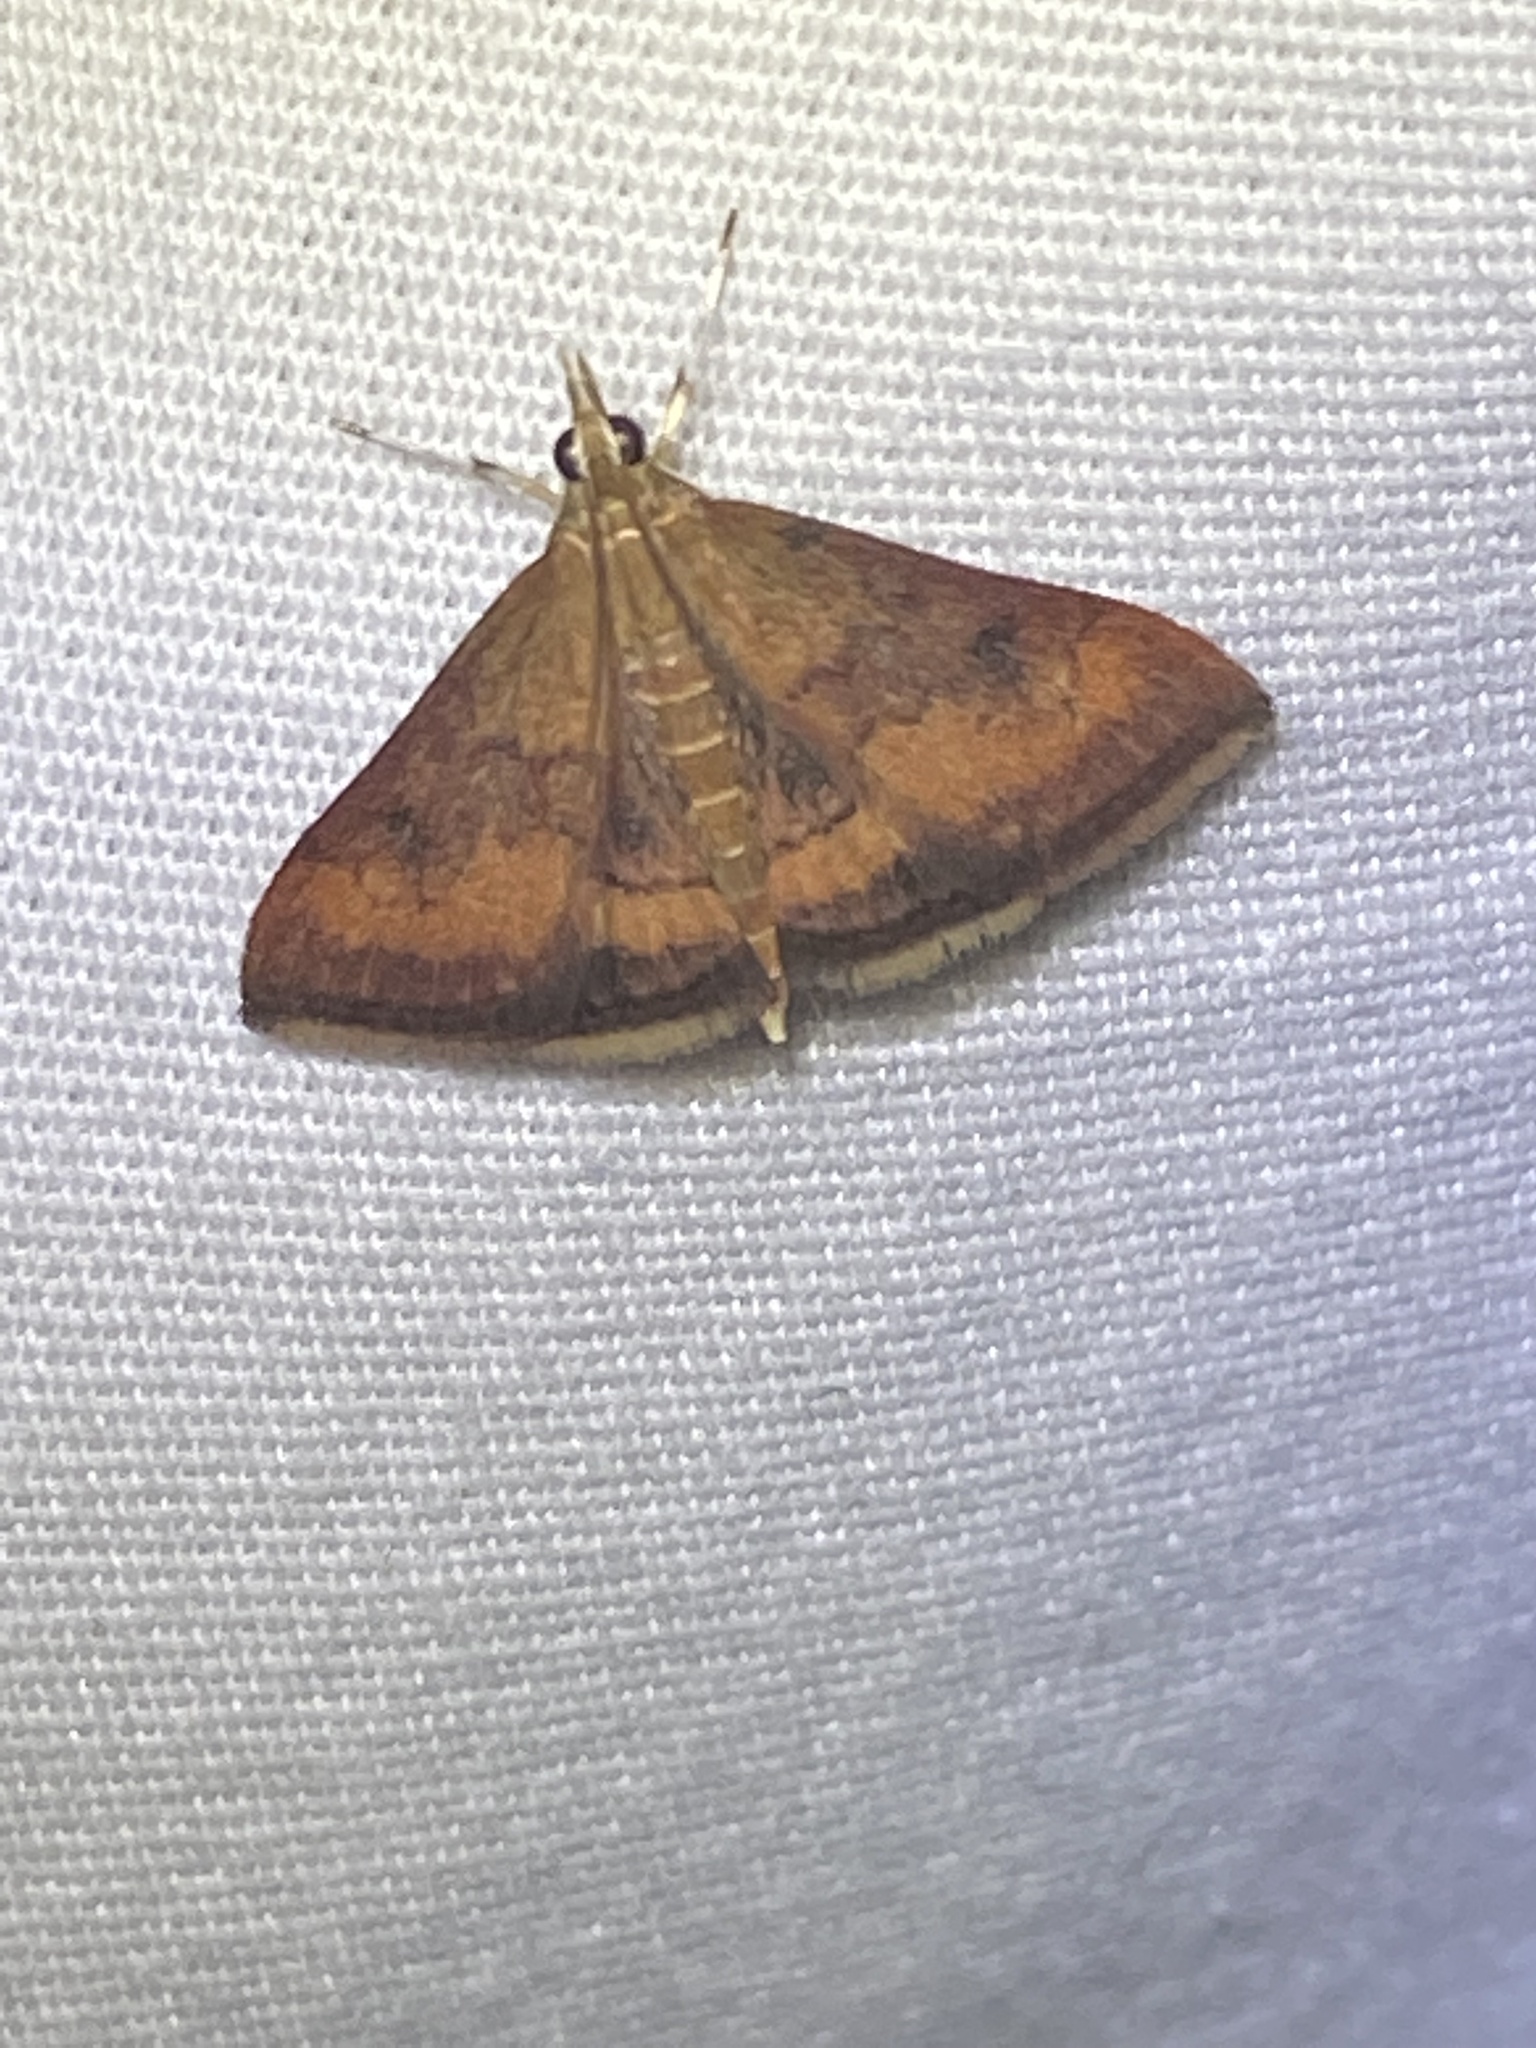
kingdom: Animalia
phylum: Arthropoda
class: Insecta
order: Lepidoptera
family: Crambidae
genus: Pyrausta
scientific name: Pyrausta rubricalis
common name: Variable reddish pyrausta
